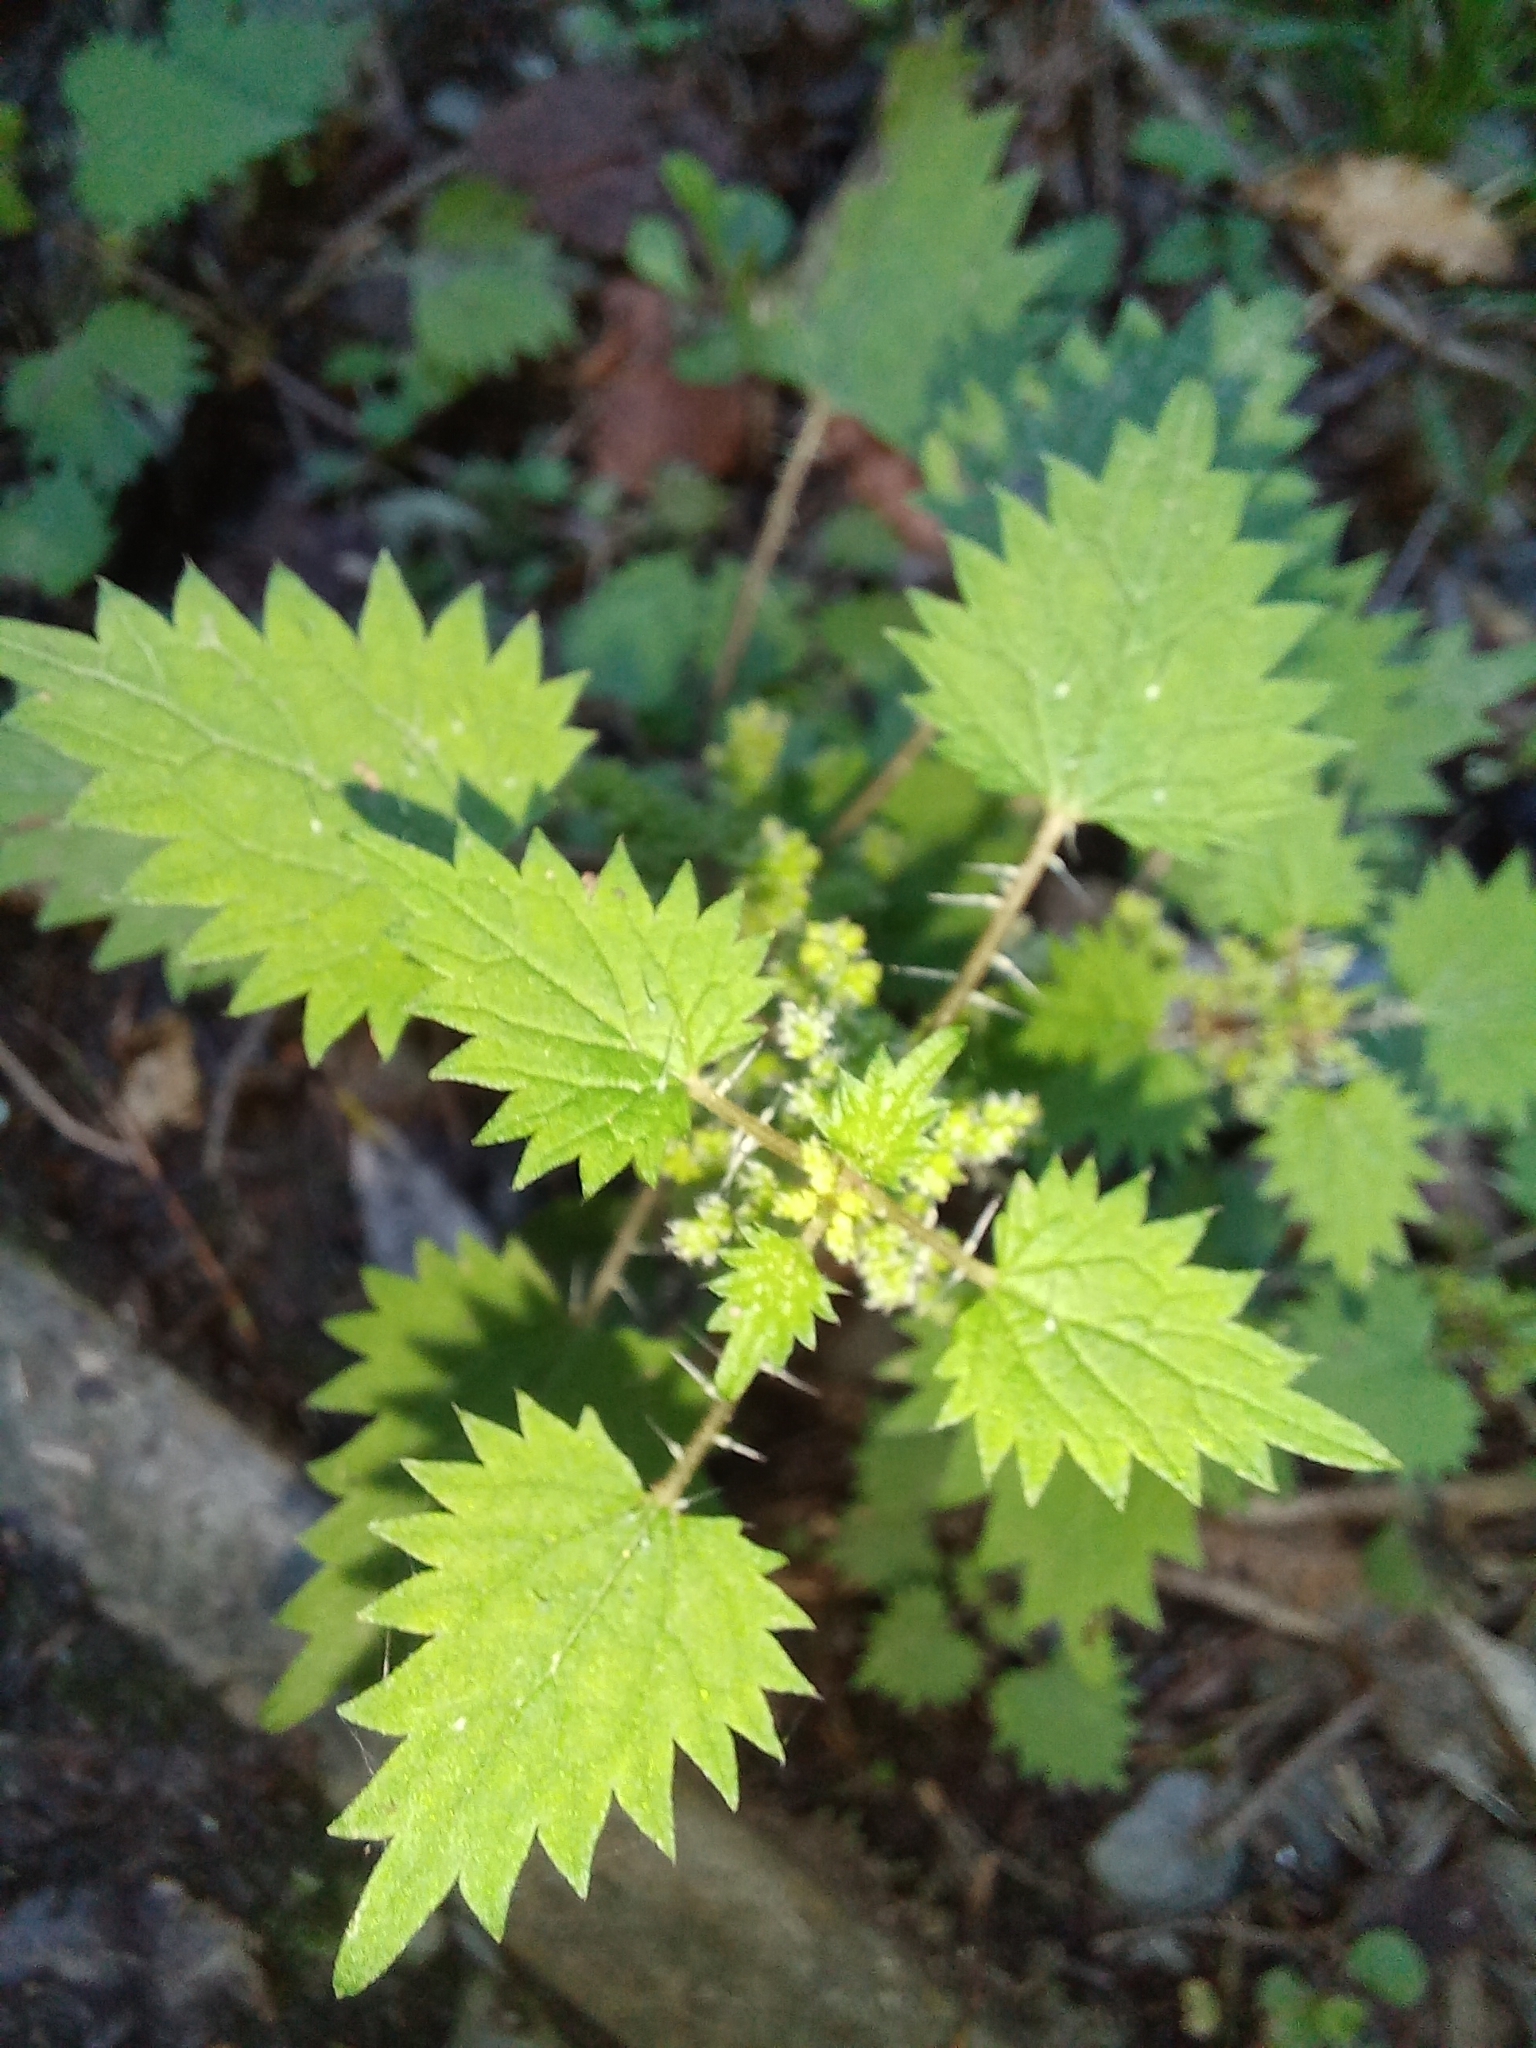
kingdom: Plantae
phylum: Tracheophyta
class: Magnoliopsida
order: Rosales
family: Urticaceae
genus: Urtica
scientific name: Urtica sykesii
